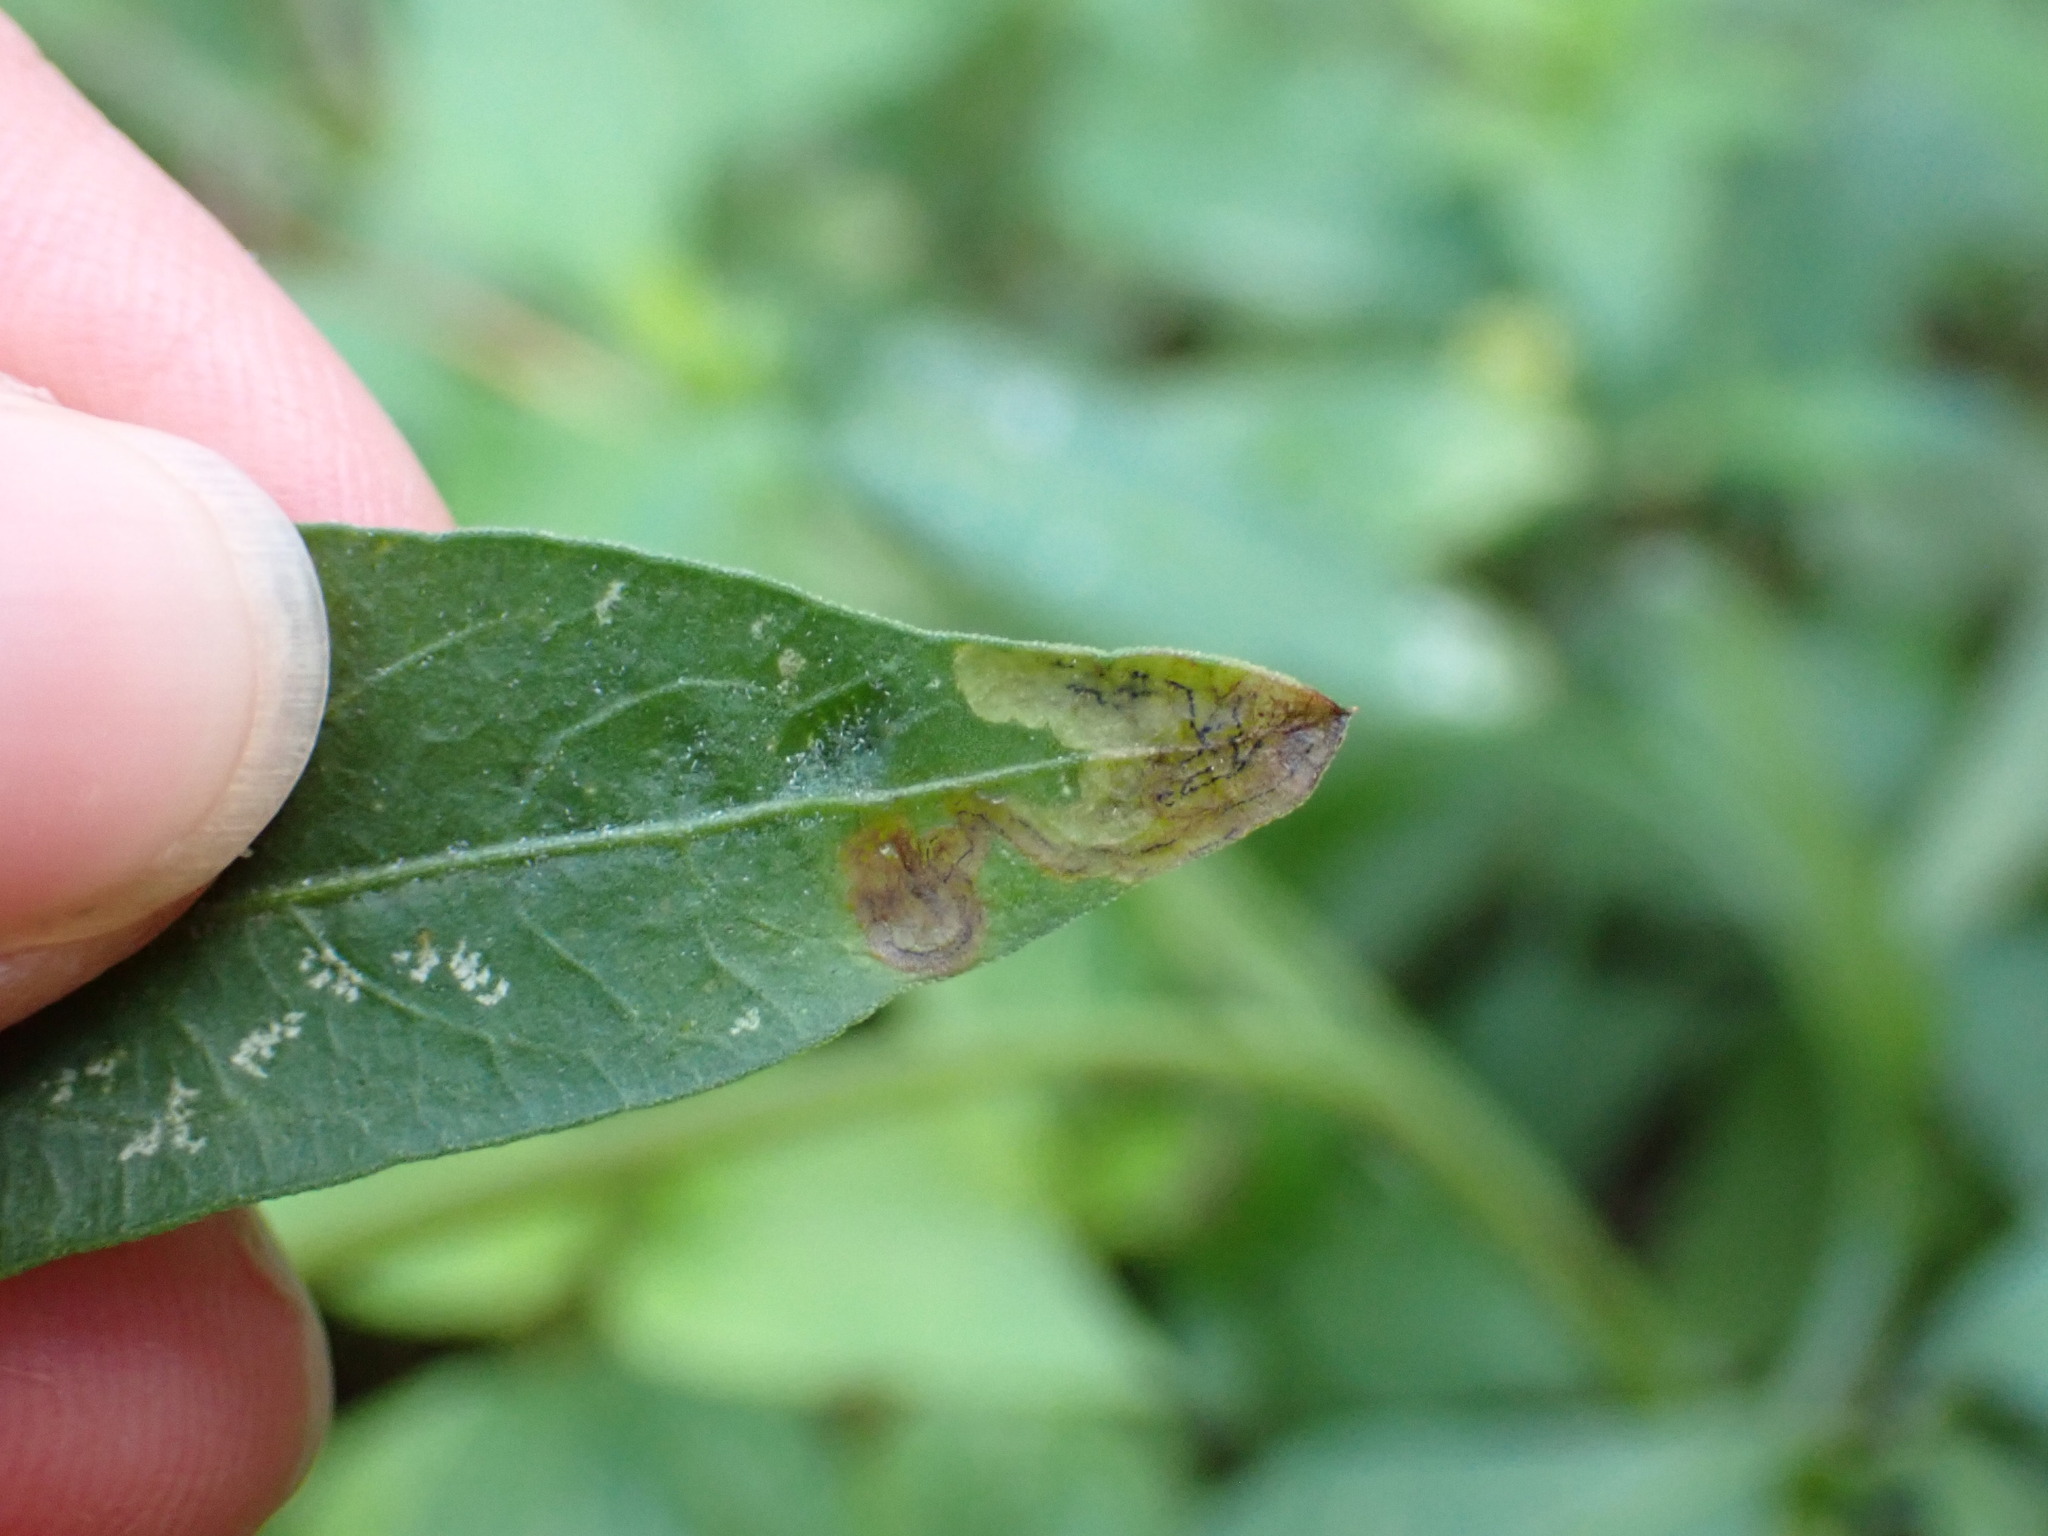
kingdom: Animalia
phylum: Arthropoda
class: Insecta
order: Diptera
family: Agromyzidae
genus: Liriomyza
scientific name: Liriomyza carphephori
